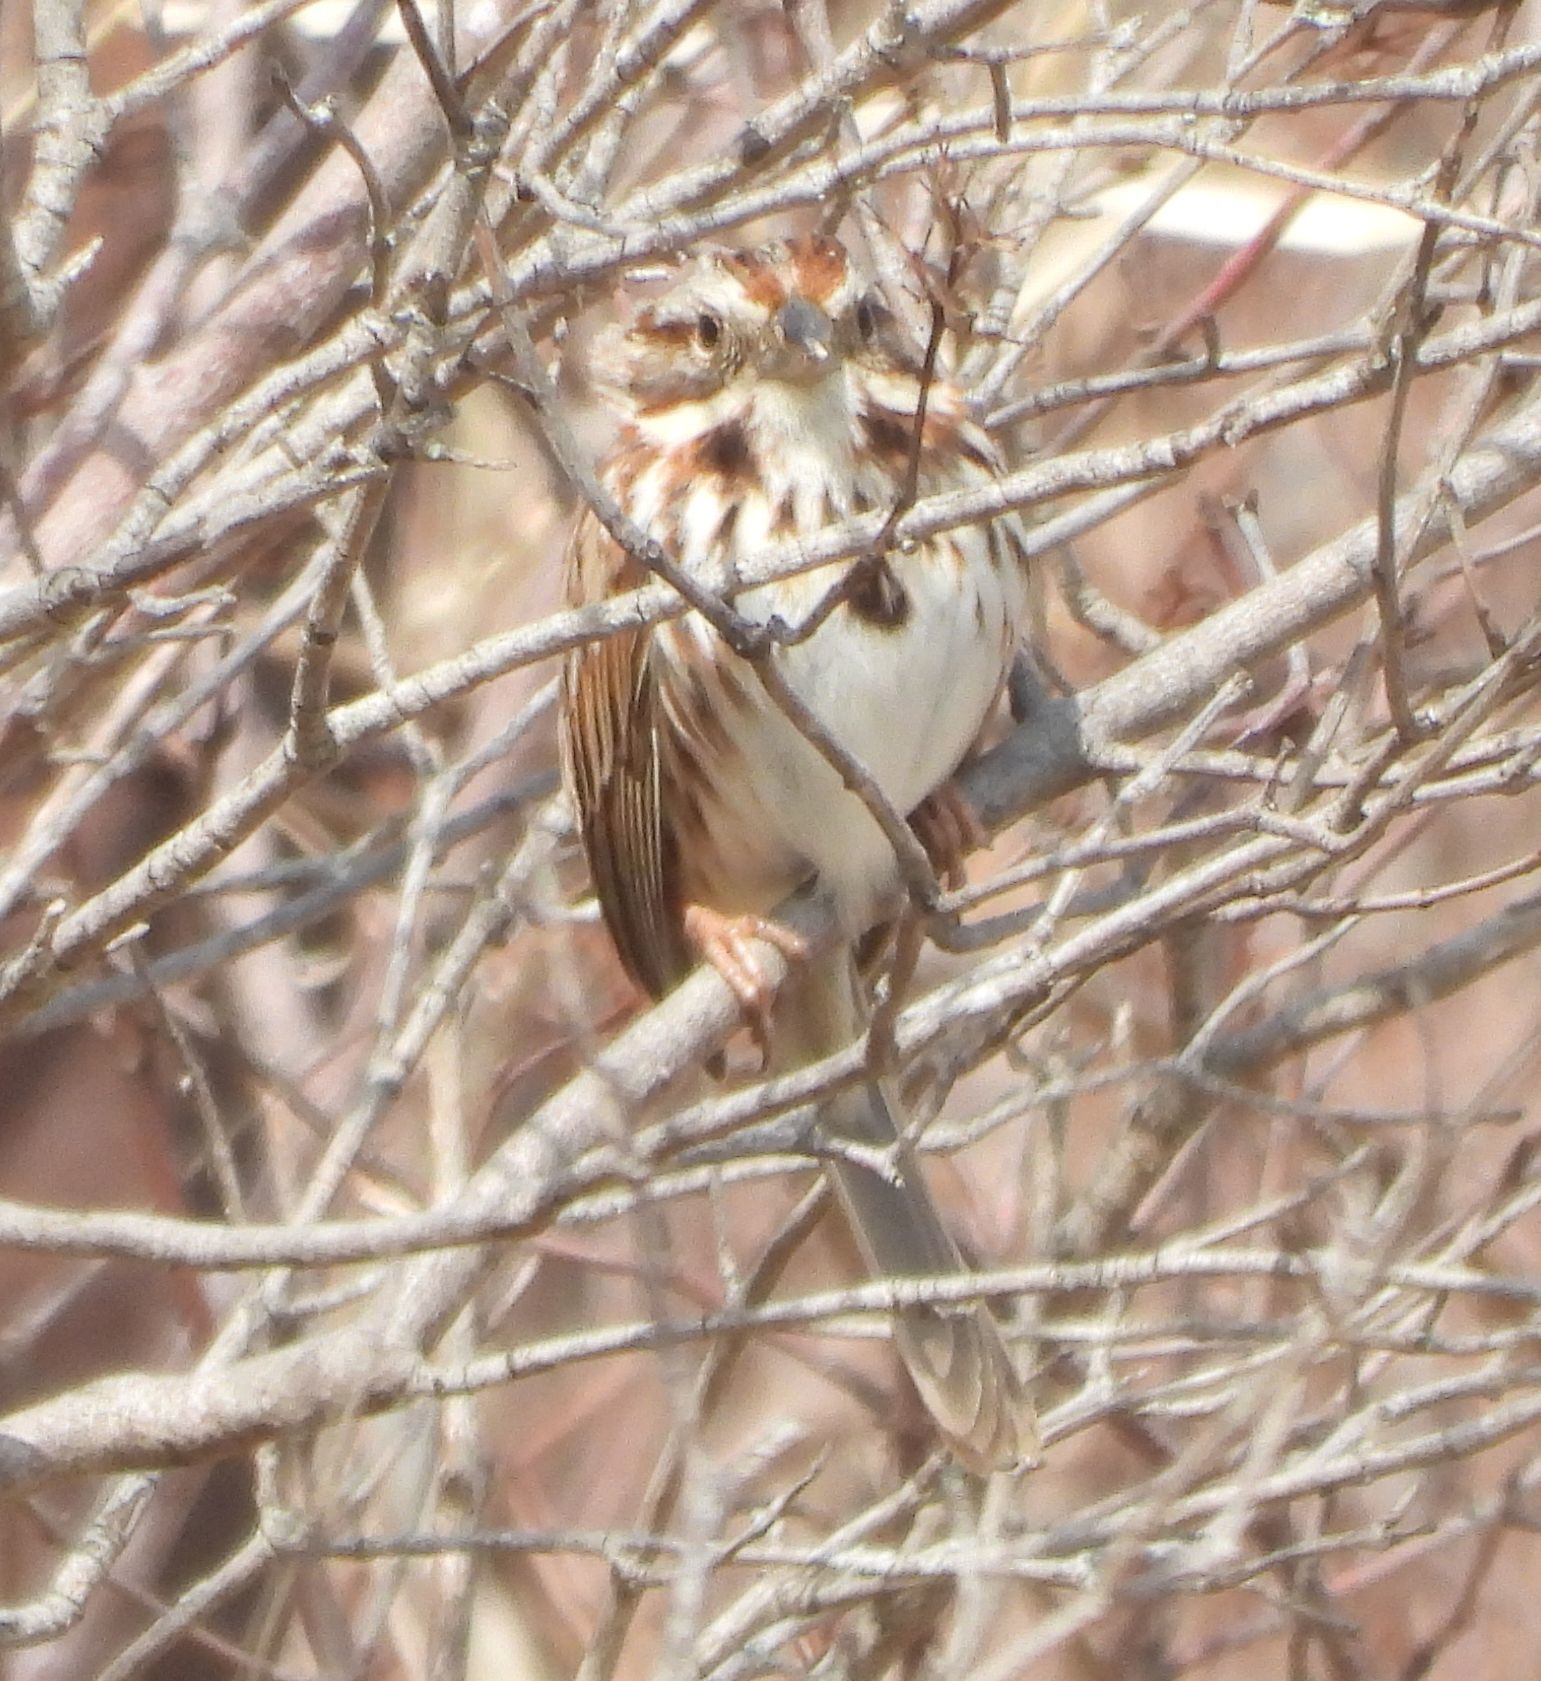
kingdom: Animalia
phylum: Chordata
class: Aves
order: Passeriformes
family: Passerellidae
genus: Melospiza
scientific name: Melospiza melodia
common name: Song sparrow
